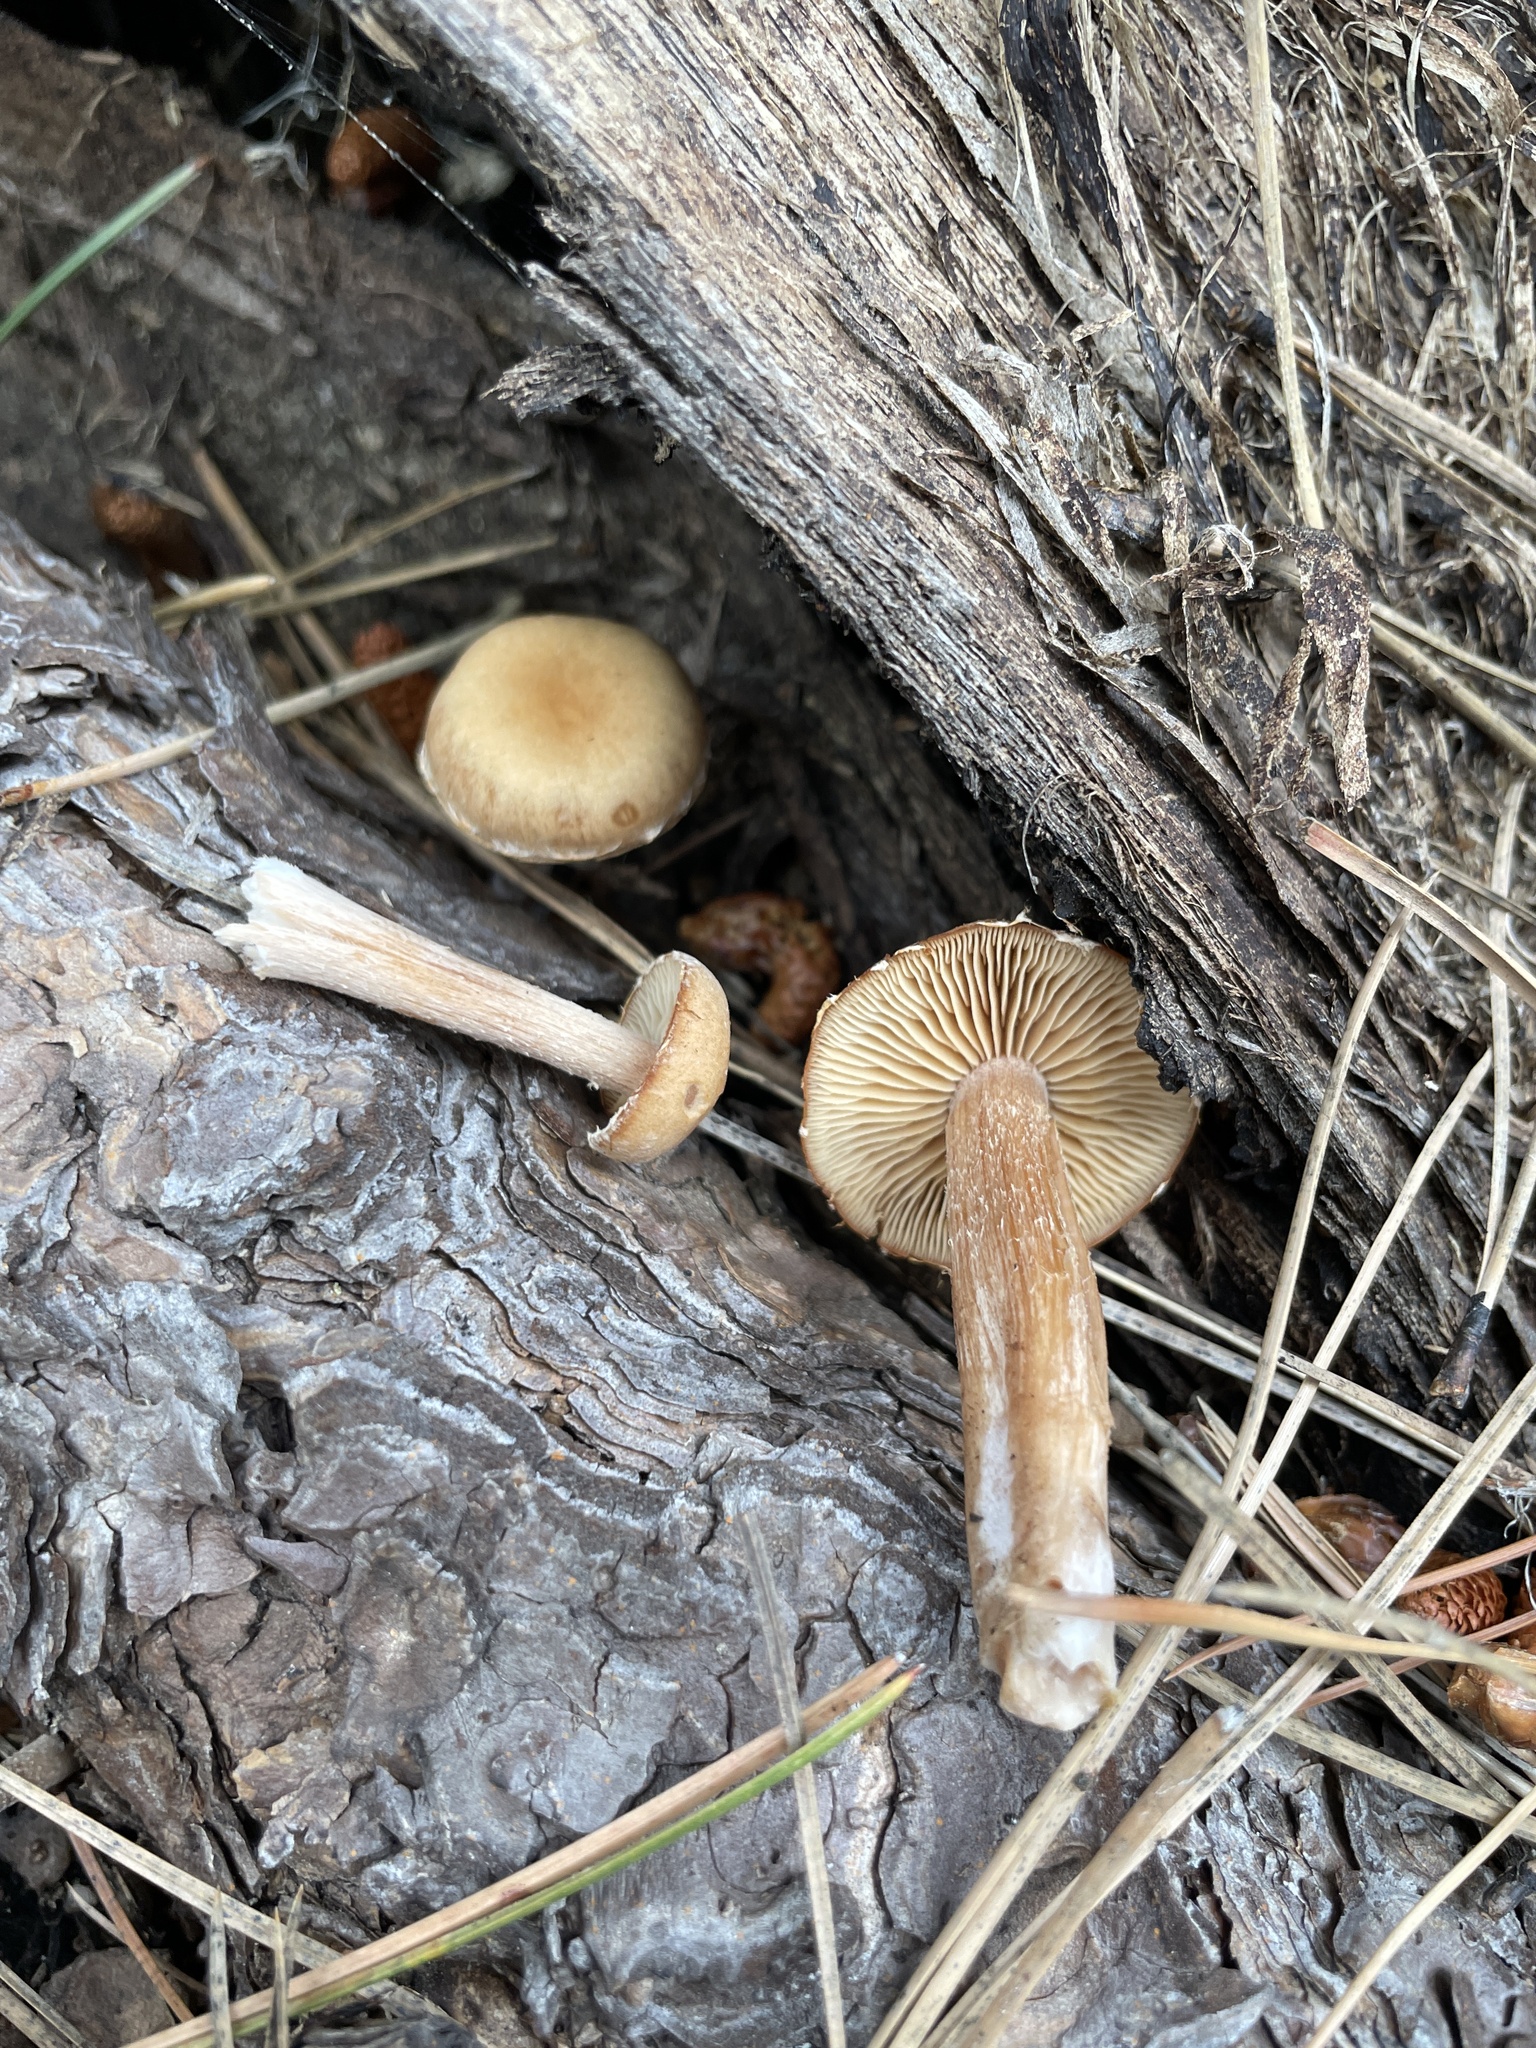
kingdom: Fungi
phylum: Basidiomycota
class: Agaricomycetes
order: Agaricales
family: Tubariaceae
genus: Tubaria
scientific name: Tubaria romagnesiana
